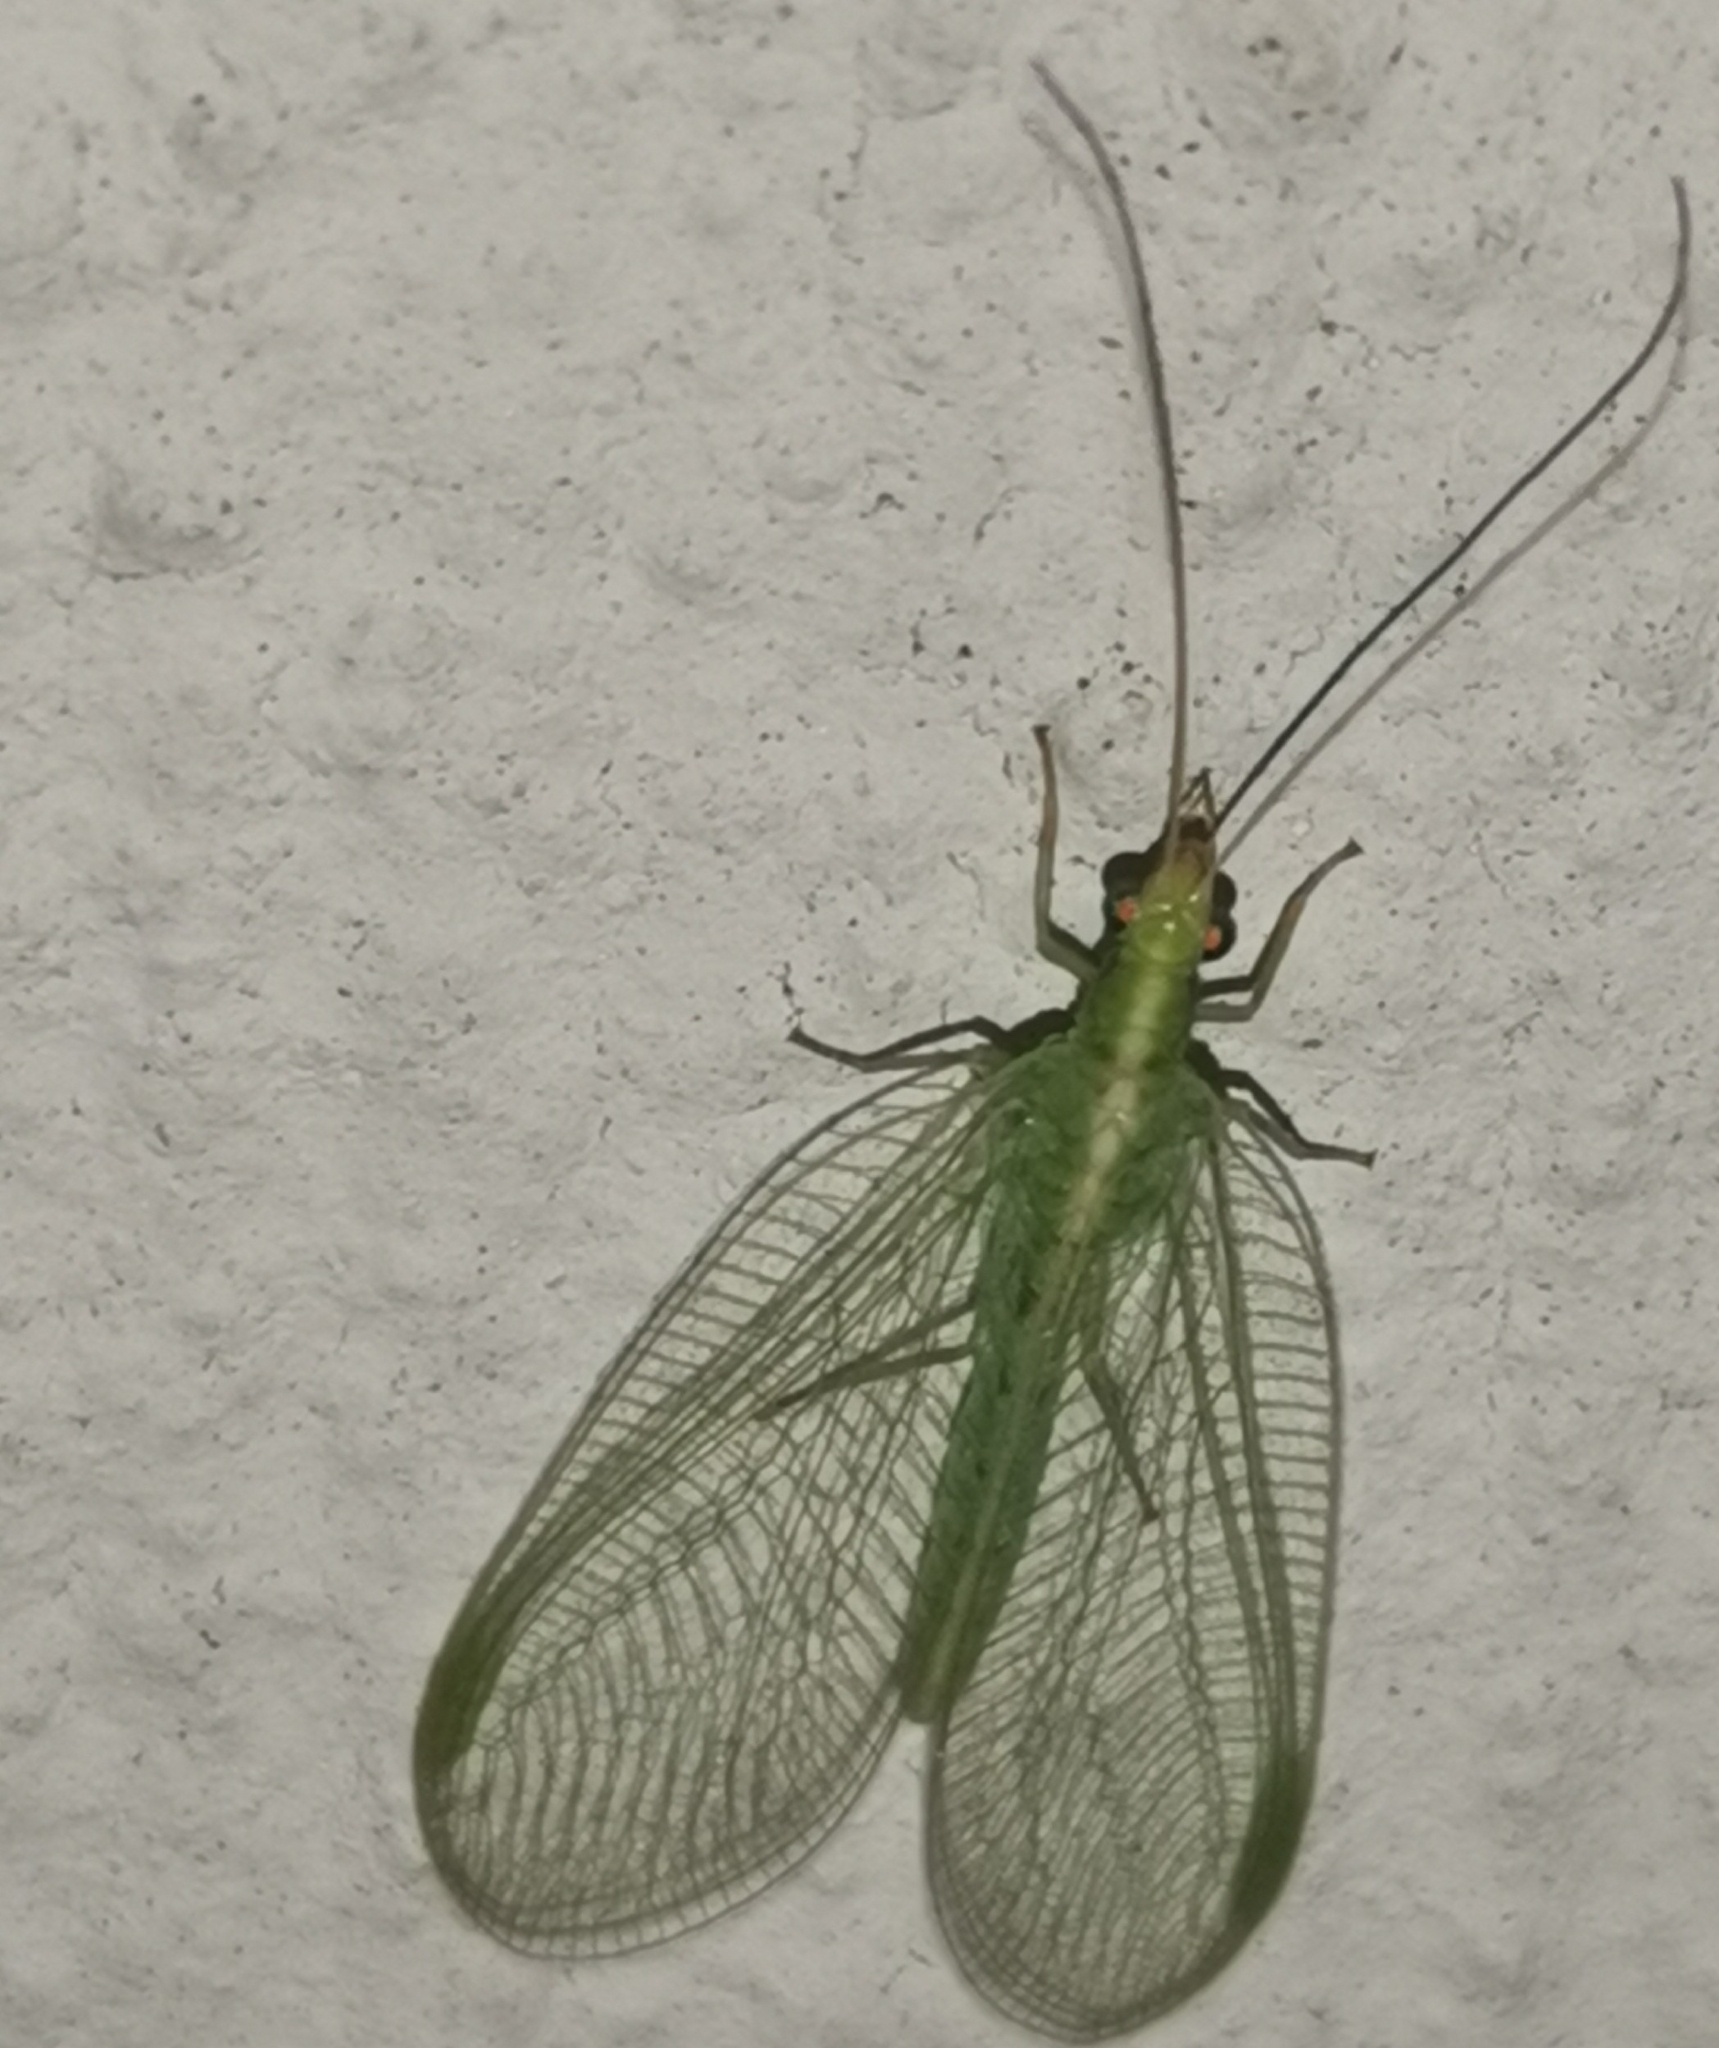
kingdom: Animalia
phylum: Arthropoda
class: Insecta
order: Neuroptera
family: Chrysopidae
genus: Chrysoperla
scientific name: Chrysoperla
